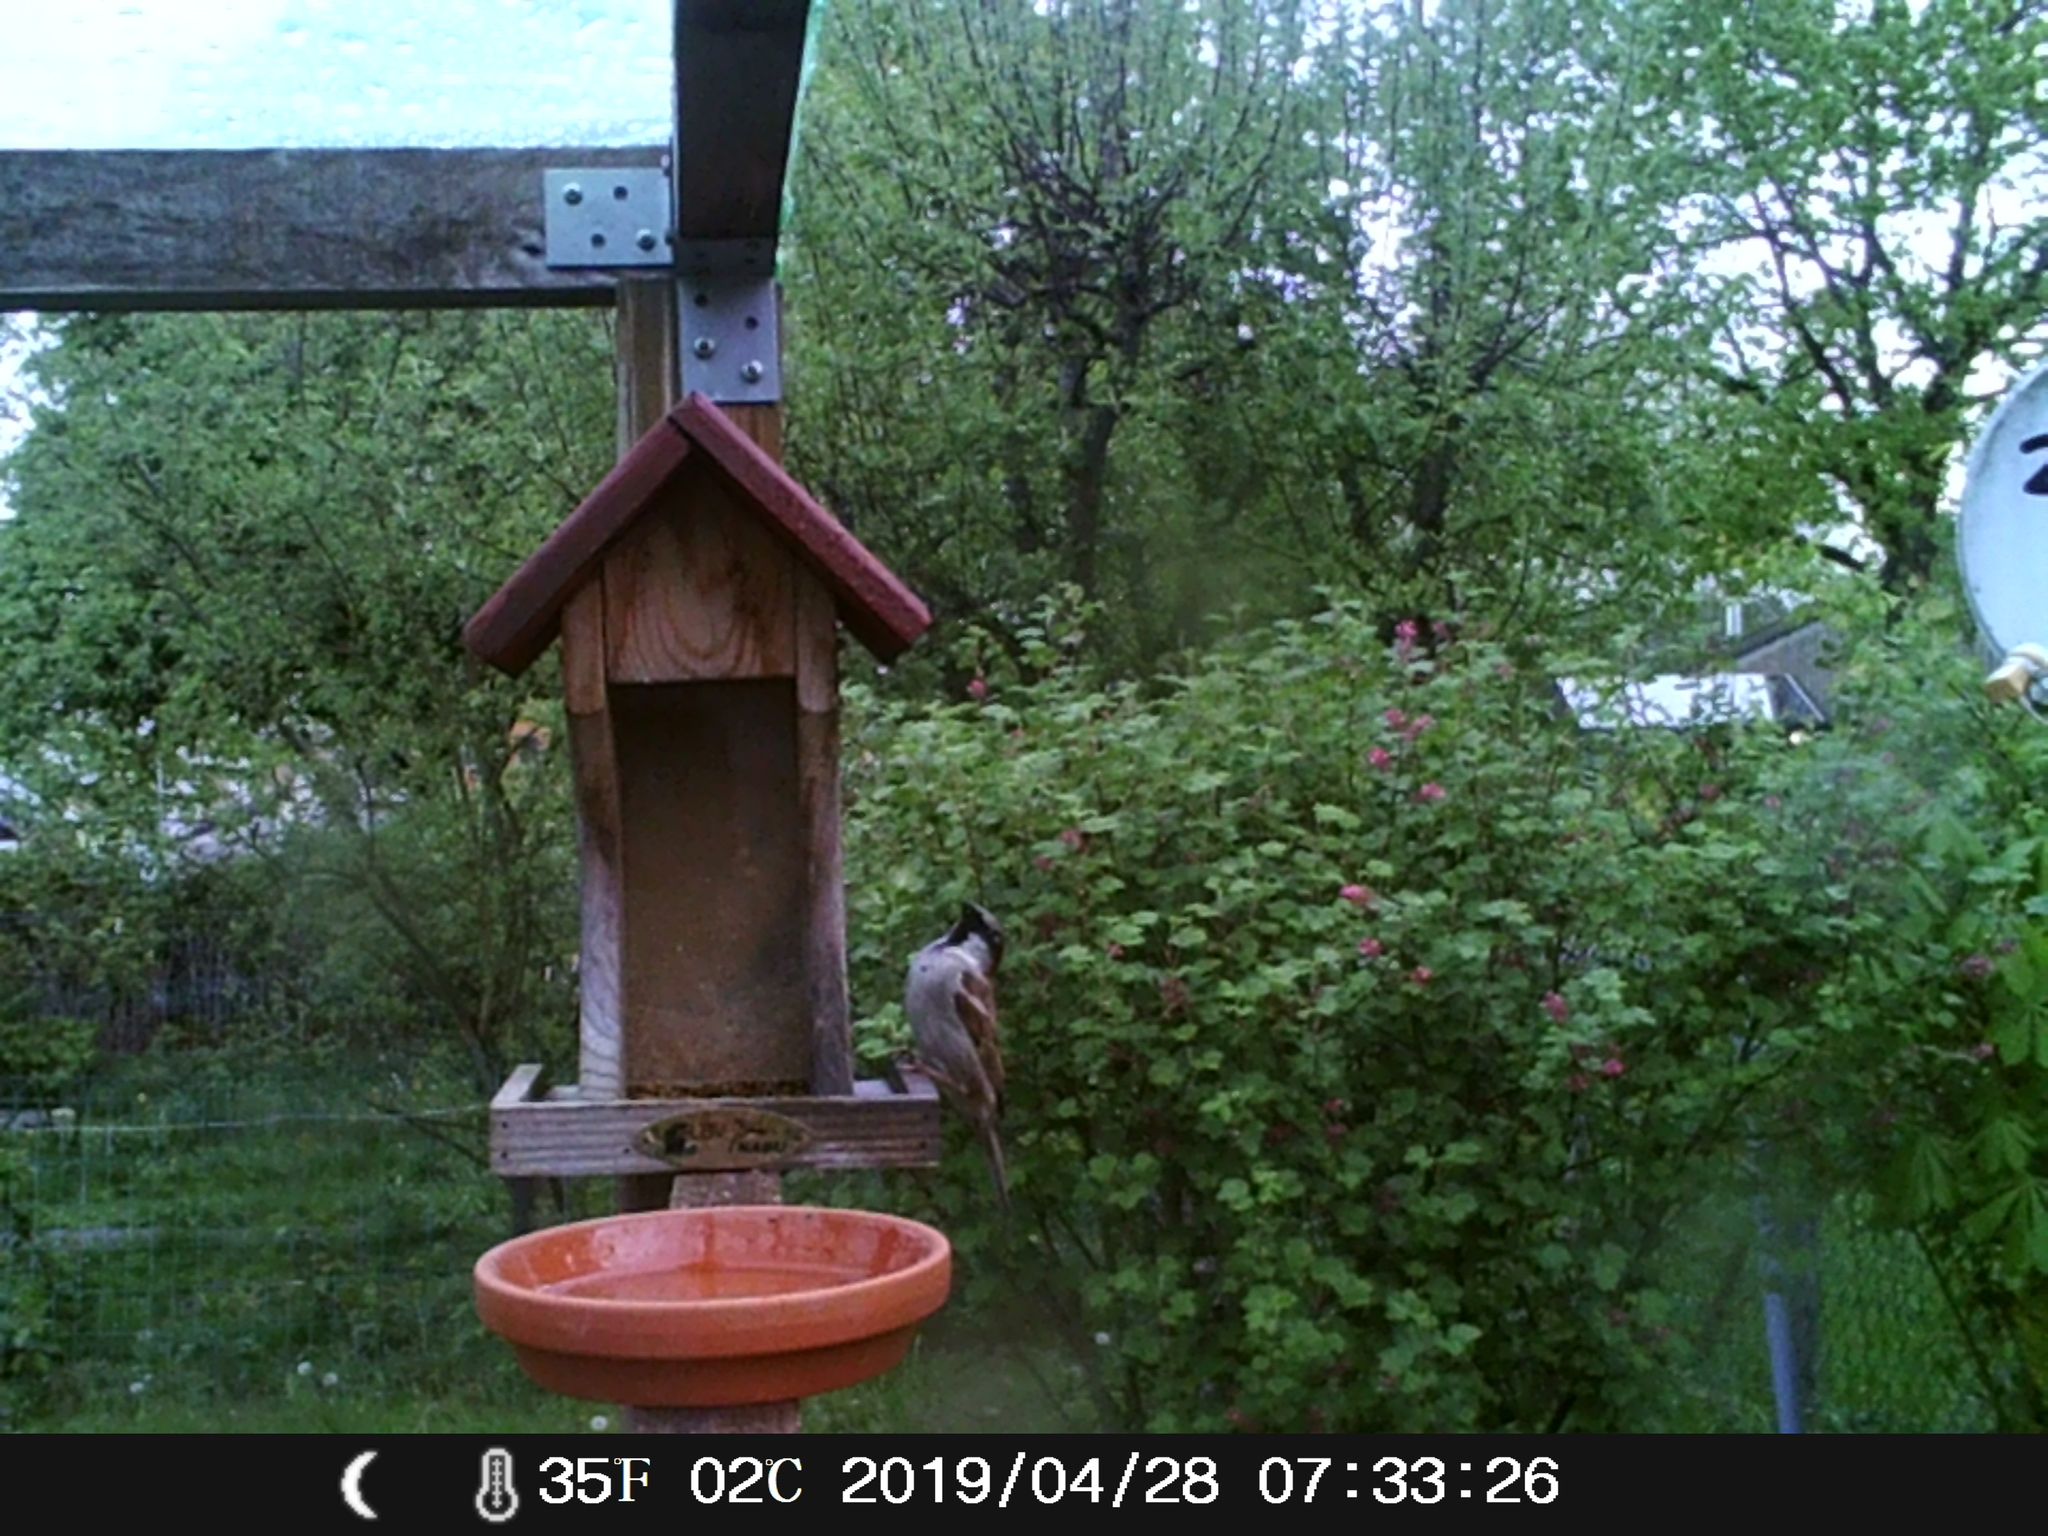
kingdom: Animalia
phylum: Chordata
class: Aves
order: Passeriformes
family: Passeridae
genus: Passer
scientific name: Passer domesticus
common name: House sparrow
